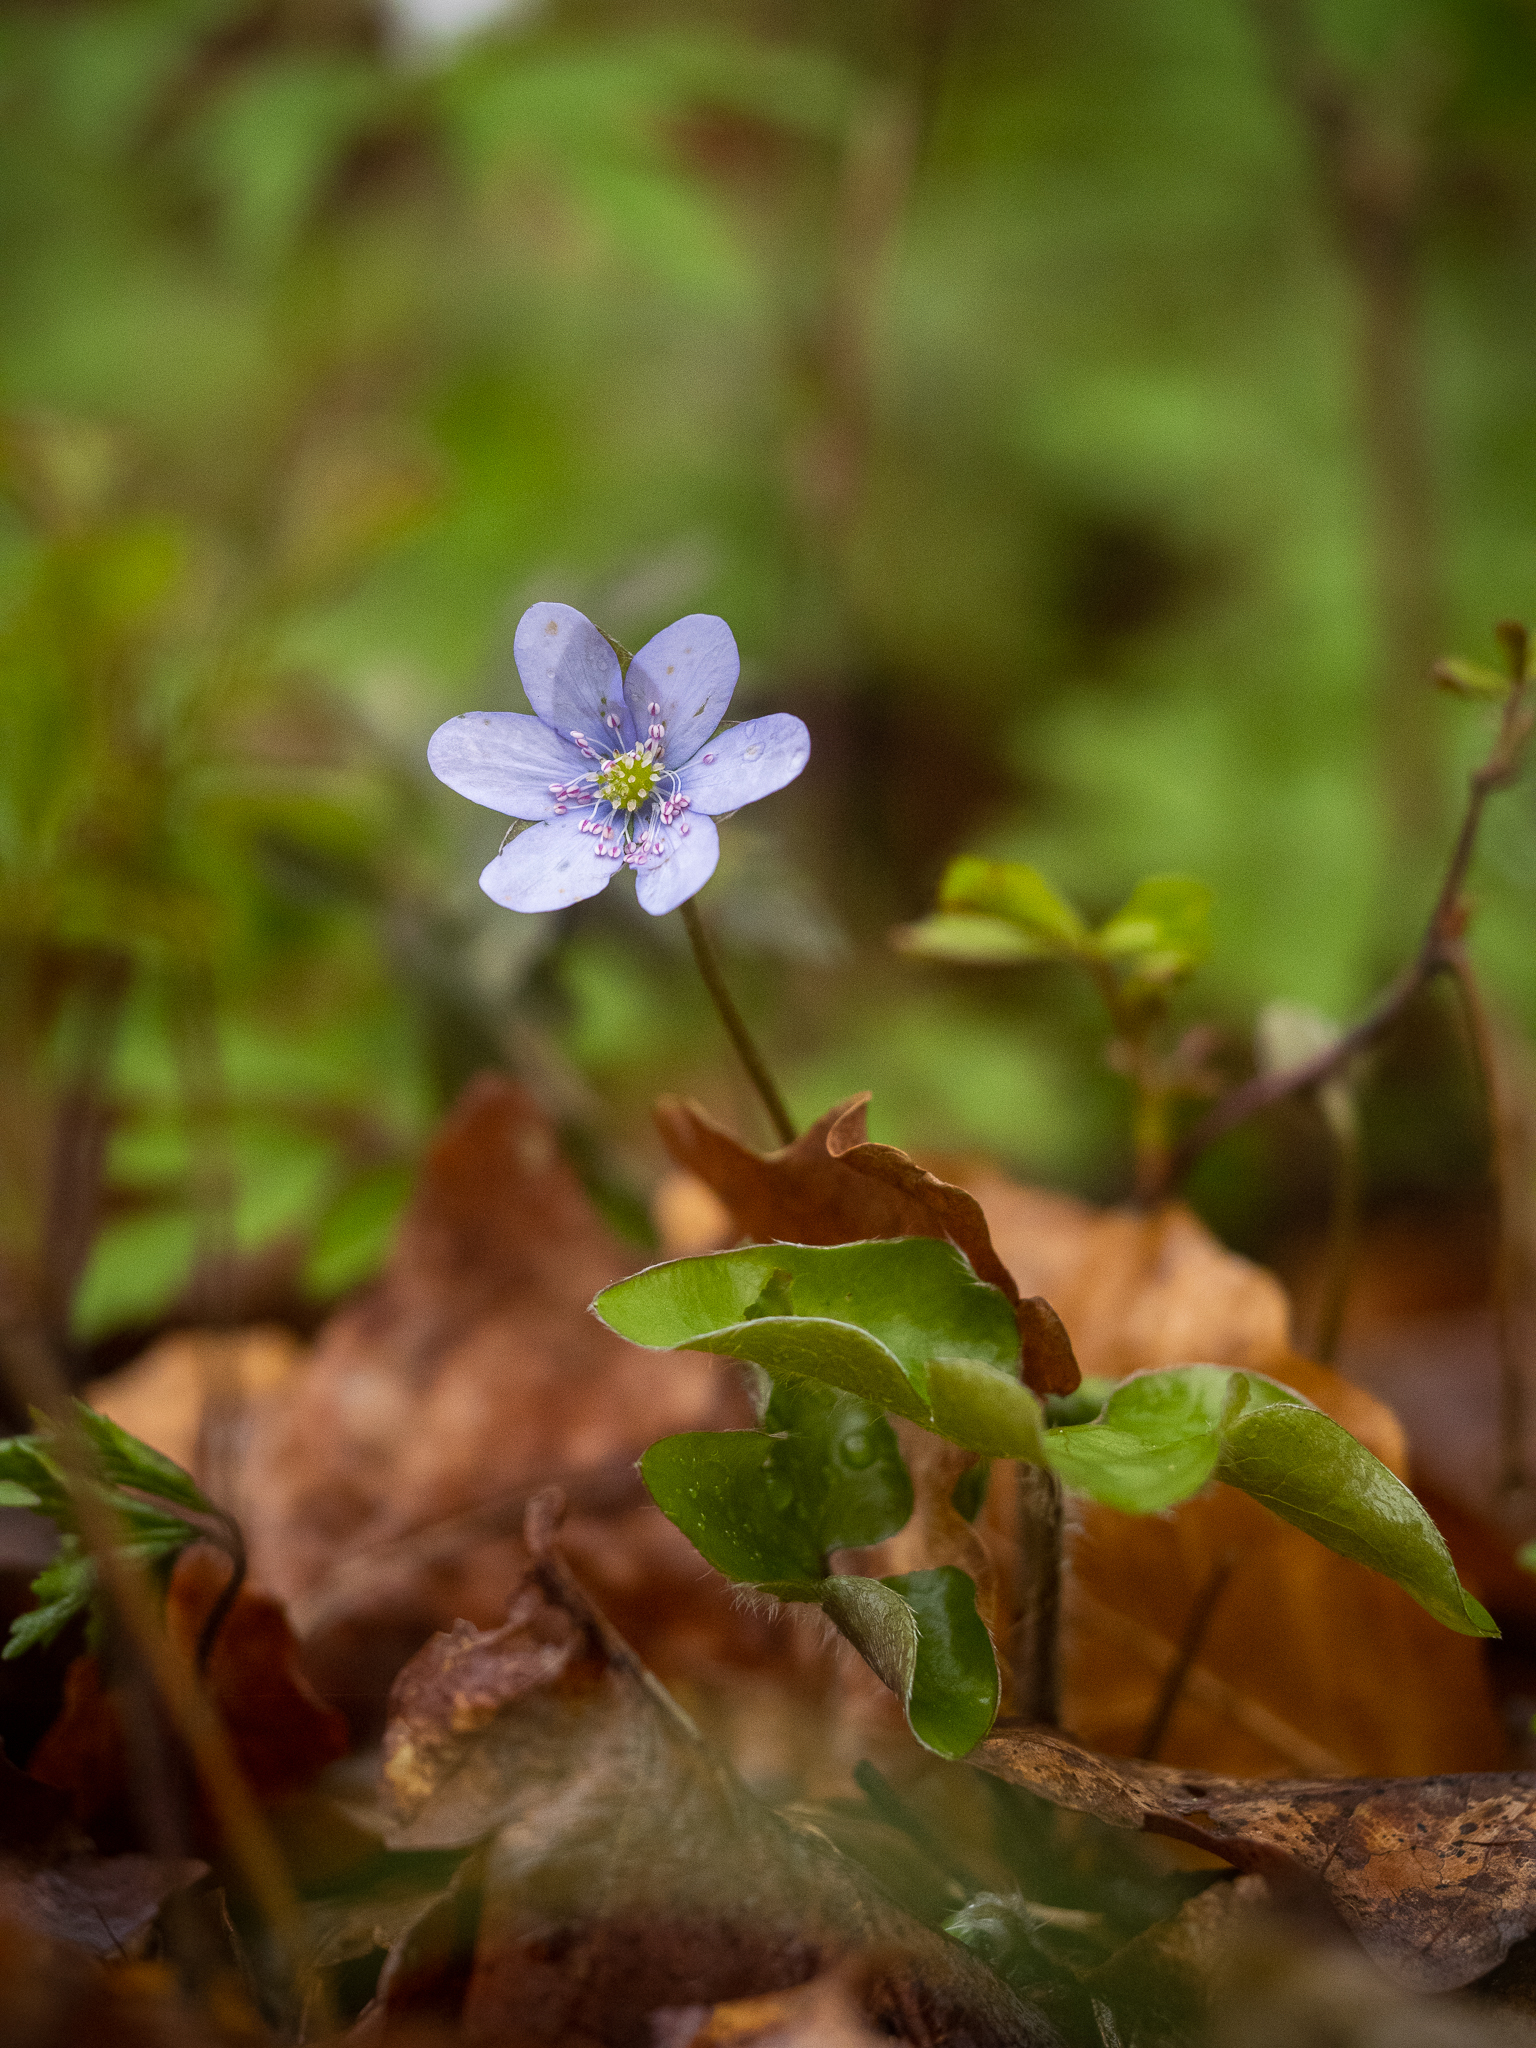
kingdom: Plantae
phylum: Tracheophyta
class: Magnoliopsida
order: Ranunculales
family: Ranunculaceae
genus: Hepatica
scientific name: Hepatica nobilis
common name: Liverleaf
